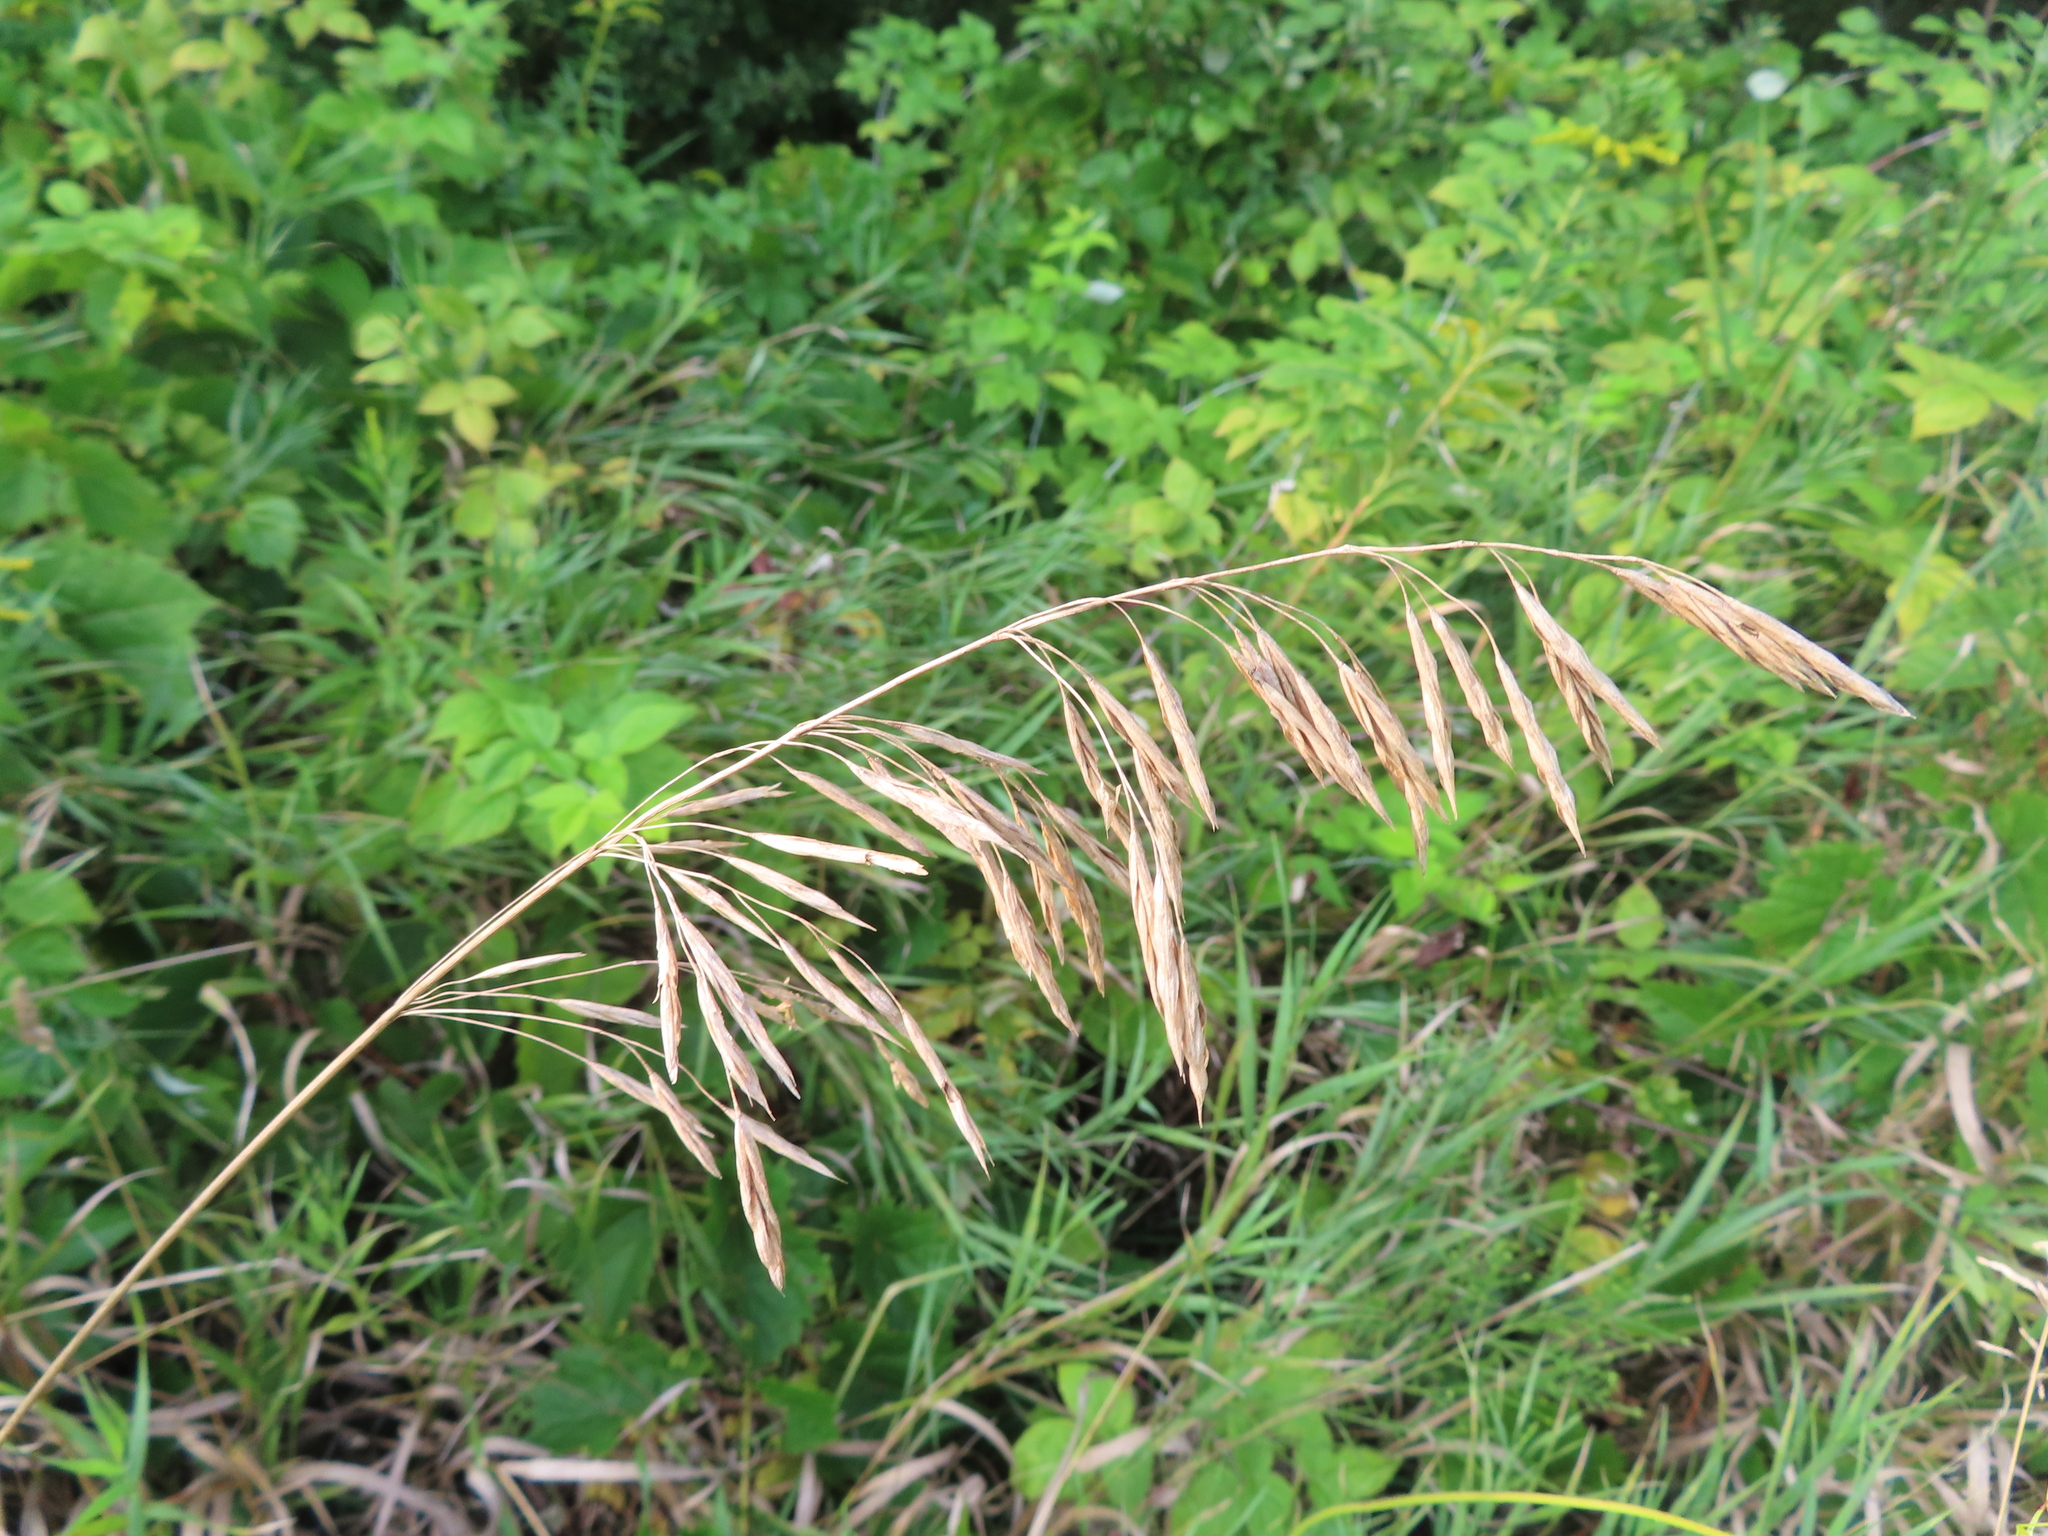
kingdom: Plantae
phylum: Tracheophyta
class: Liliopsida
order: Poales
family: Poaceae
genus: Bromus
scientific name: Bromus inermis
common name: Smooth brome
